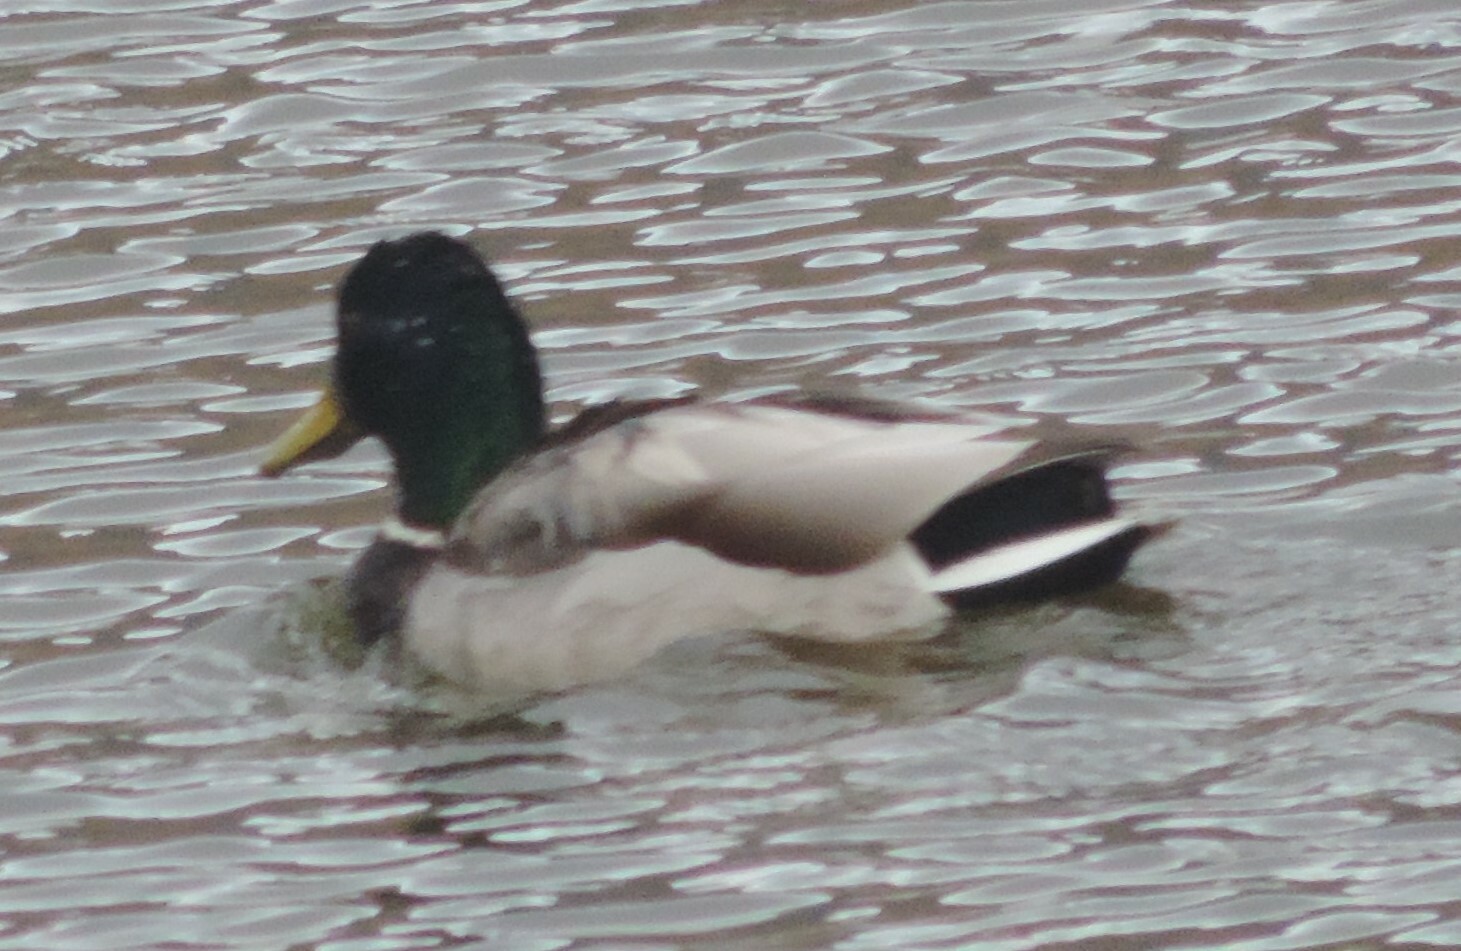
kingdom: Animalia
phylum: Chordata
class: Aves
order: Anseriformes
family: Anatidae
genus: Anas
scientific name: Anas platyrhynchos
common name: Mallard
